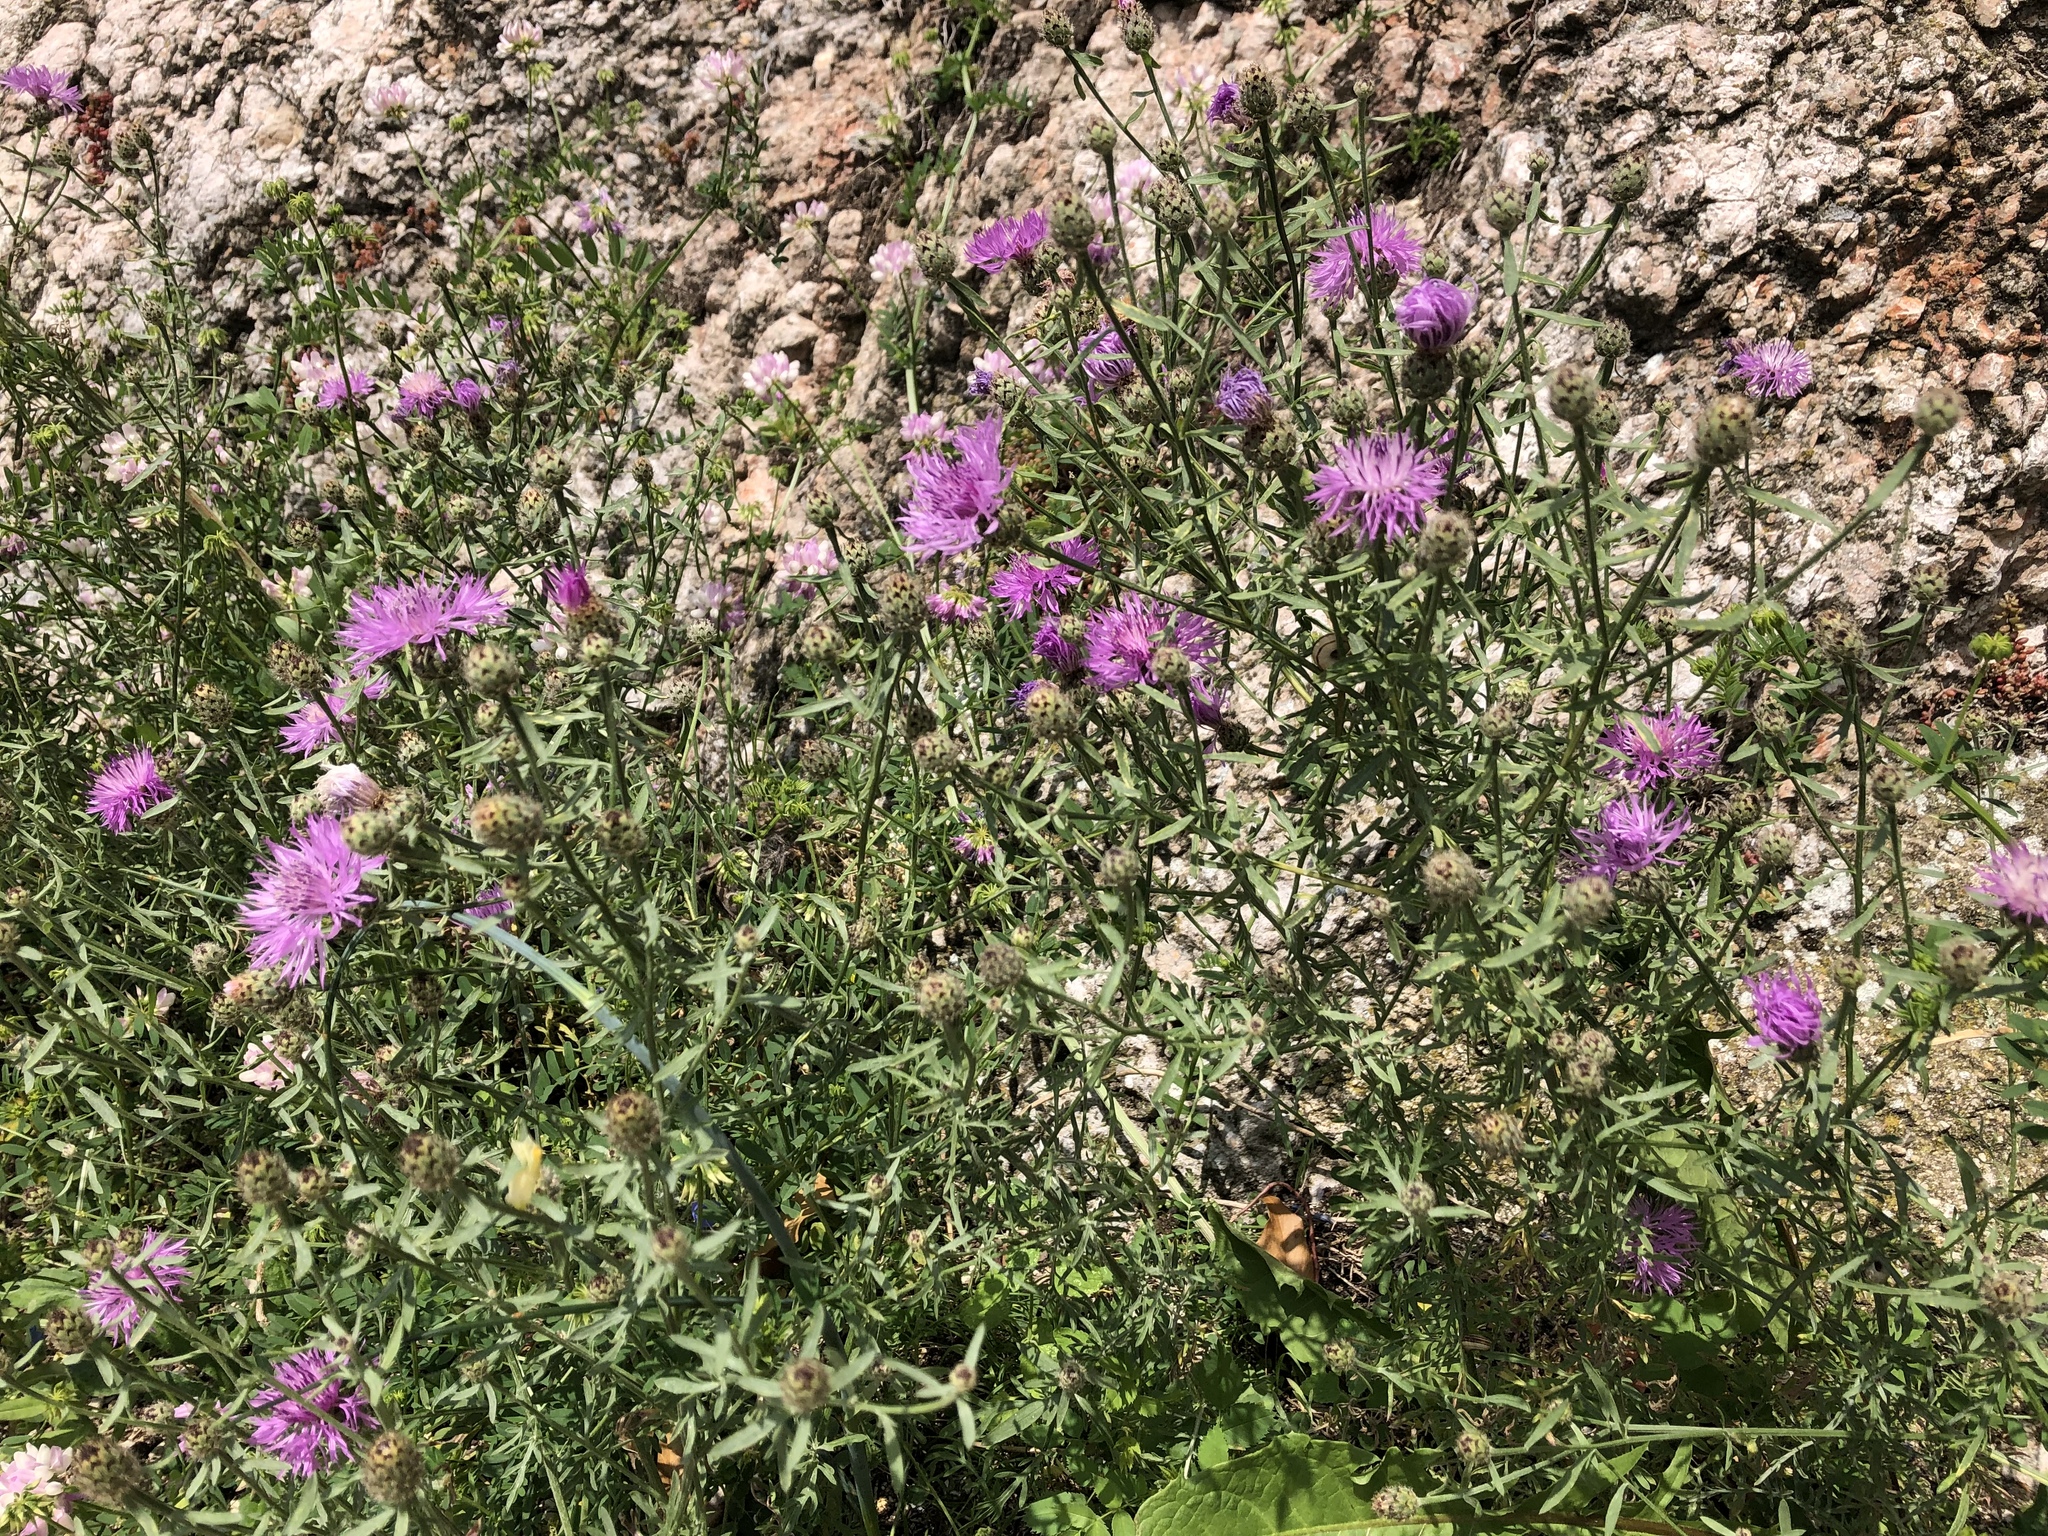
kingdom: Plantae
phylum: Tracheophyta
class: Magnoliopsida
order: Asterales
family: Asteraceae
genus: Centaurea
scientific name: Centaurea stoebe
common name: Spotted knapweed
